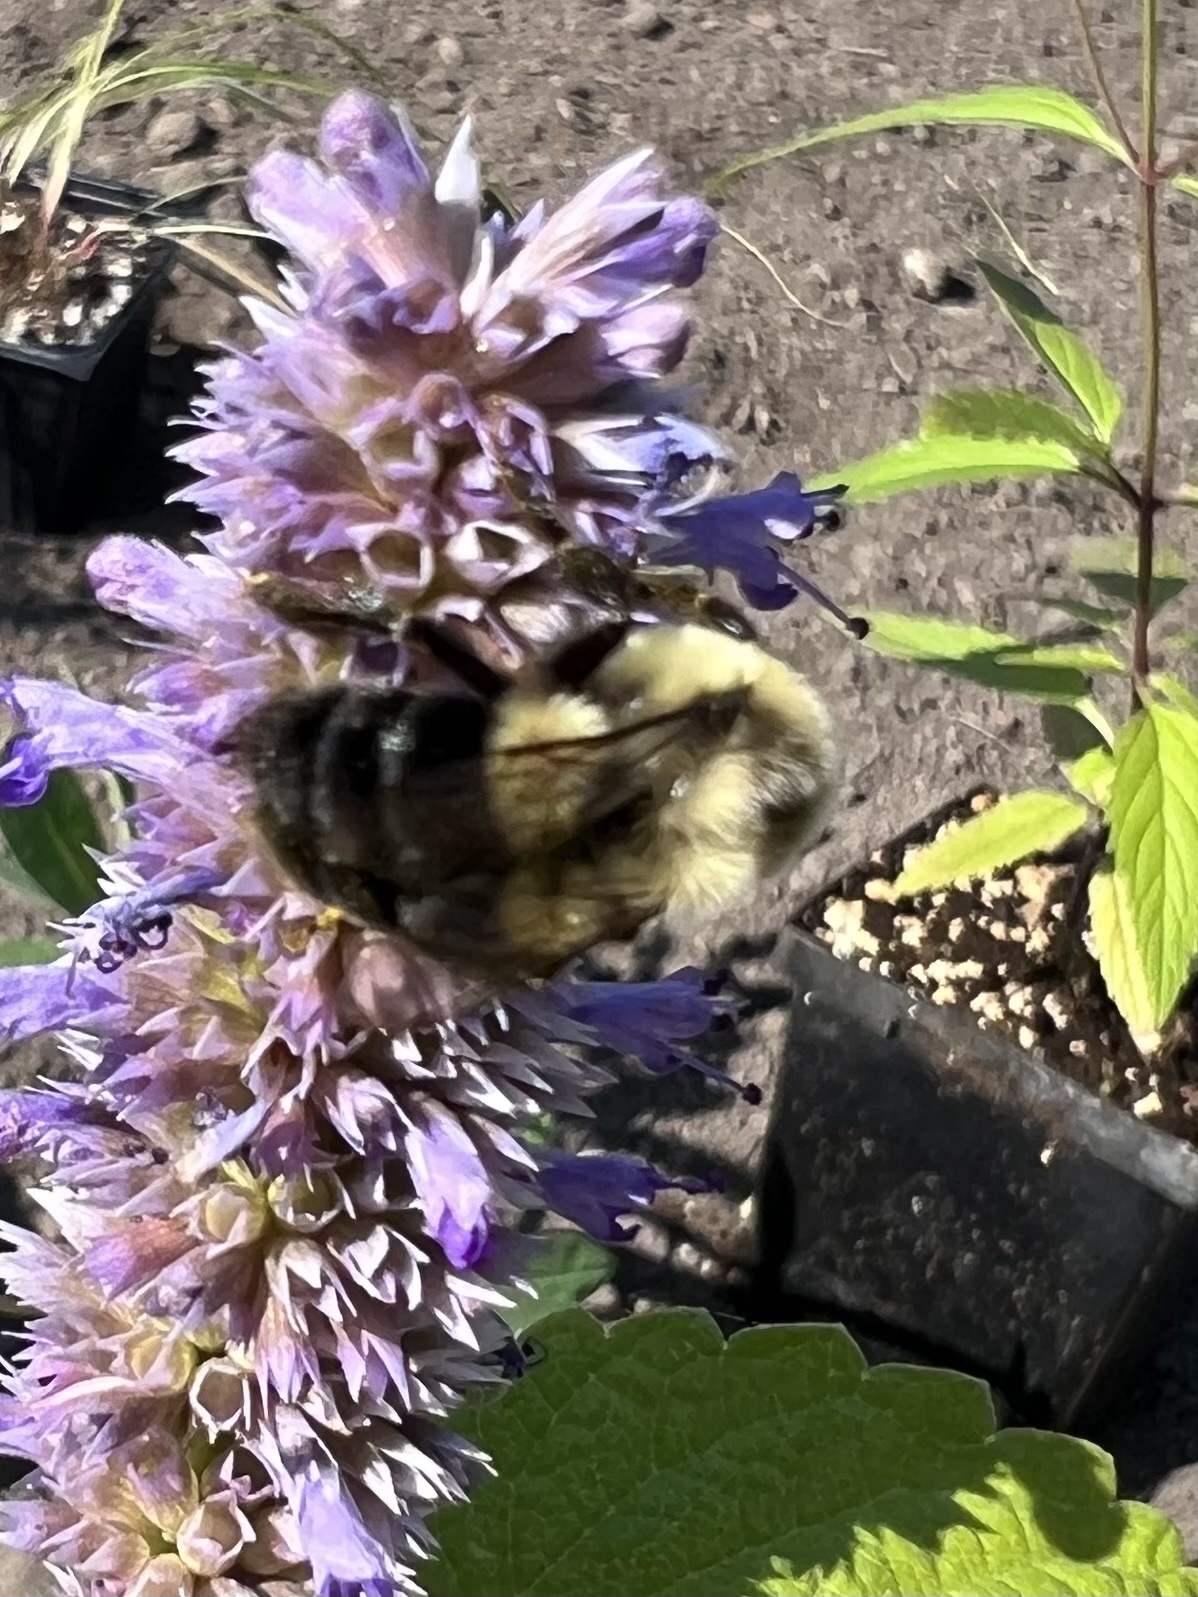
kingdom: Animalia
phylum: Arthropoda
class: Insecta
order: Hymenoptera
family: Apidae
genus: Bombus
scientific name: Bombus impatiens
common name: Common eastern bumble bee
